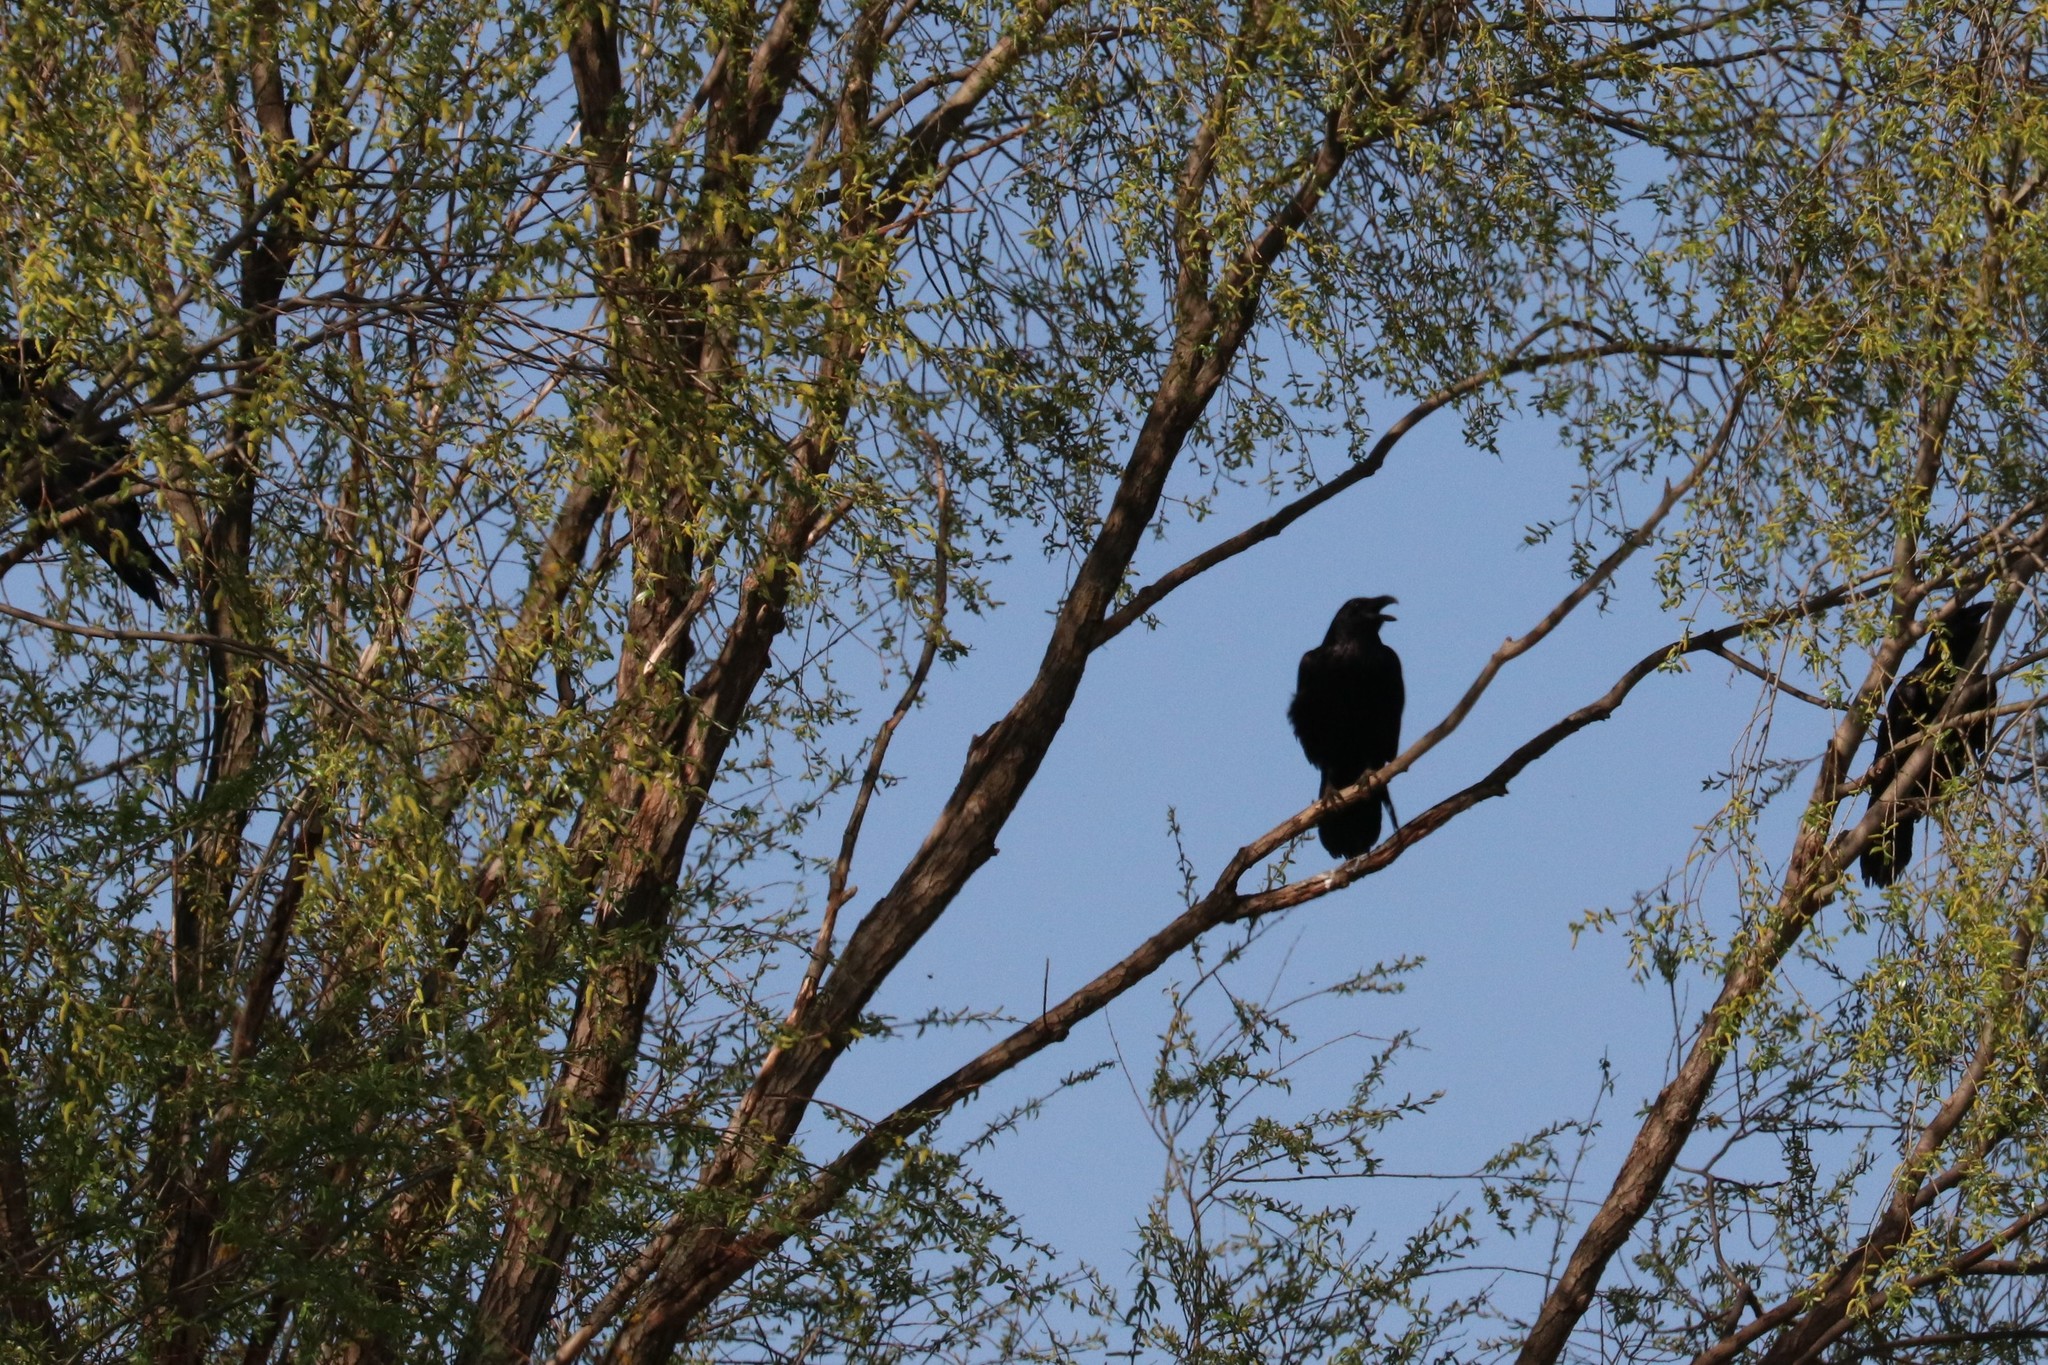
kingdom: Animalia
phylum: Chordata
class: Aves
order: Passeriformes
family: Corvidae
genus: Corvus
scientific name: Corvus corax
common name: Common raven
